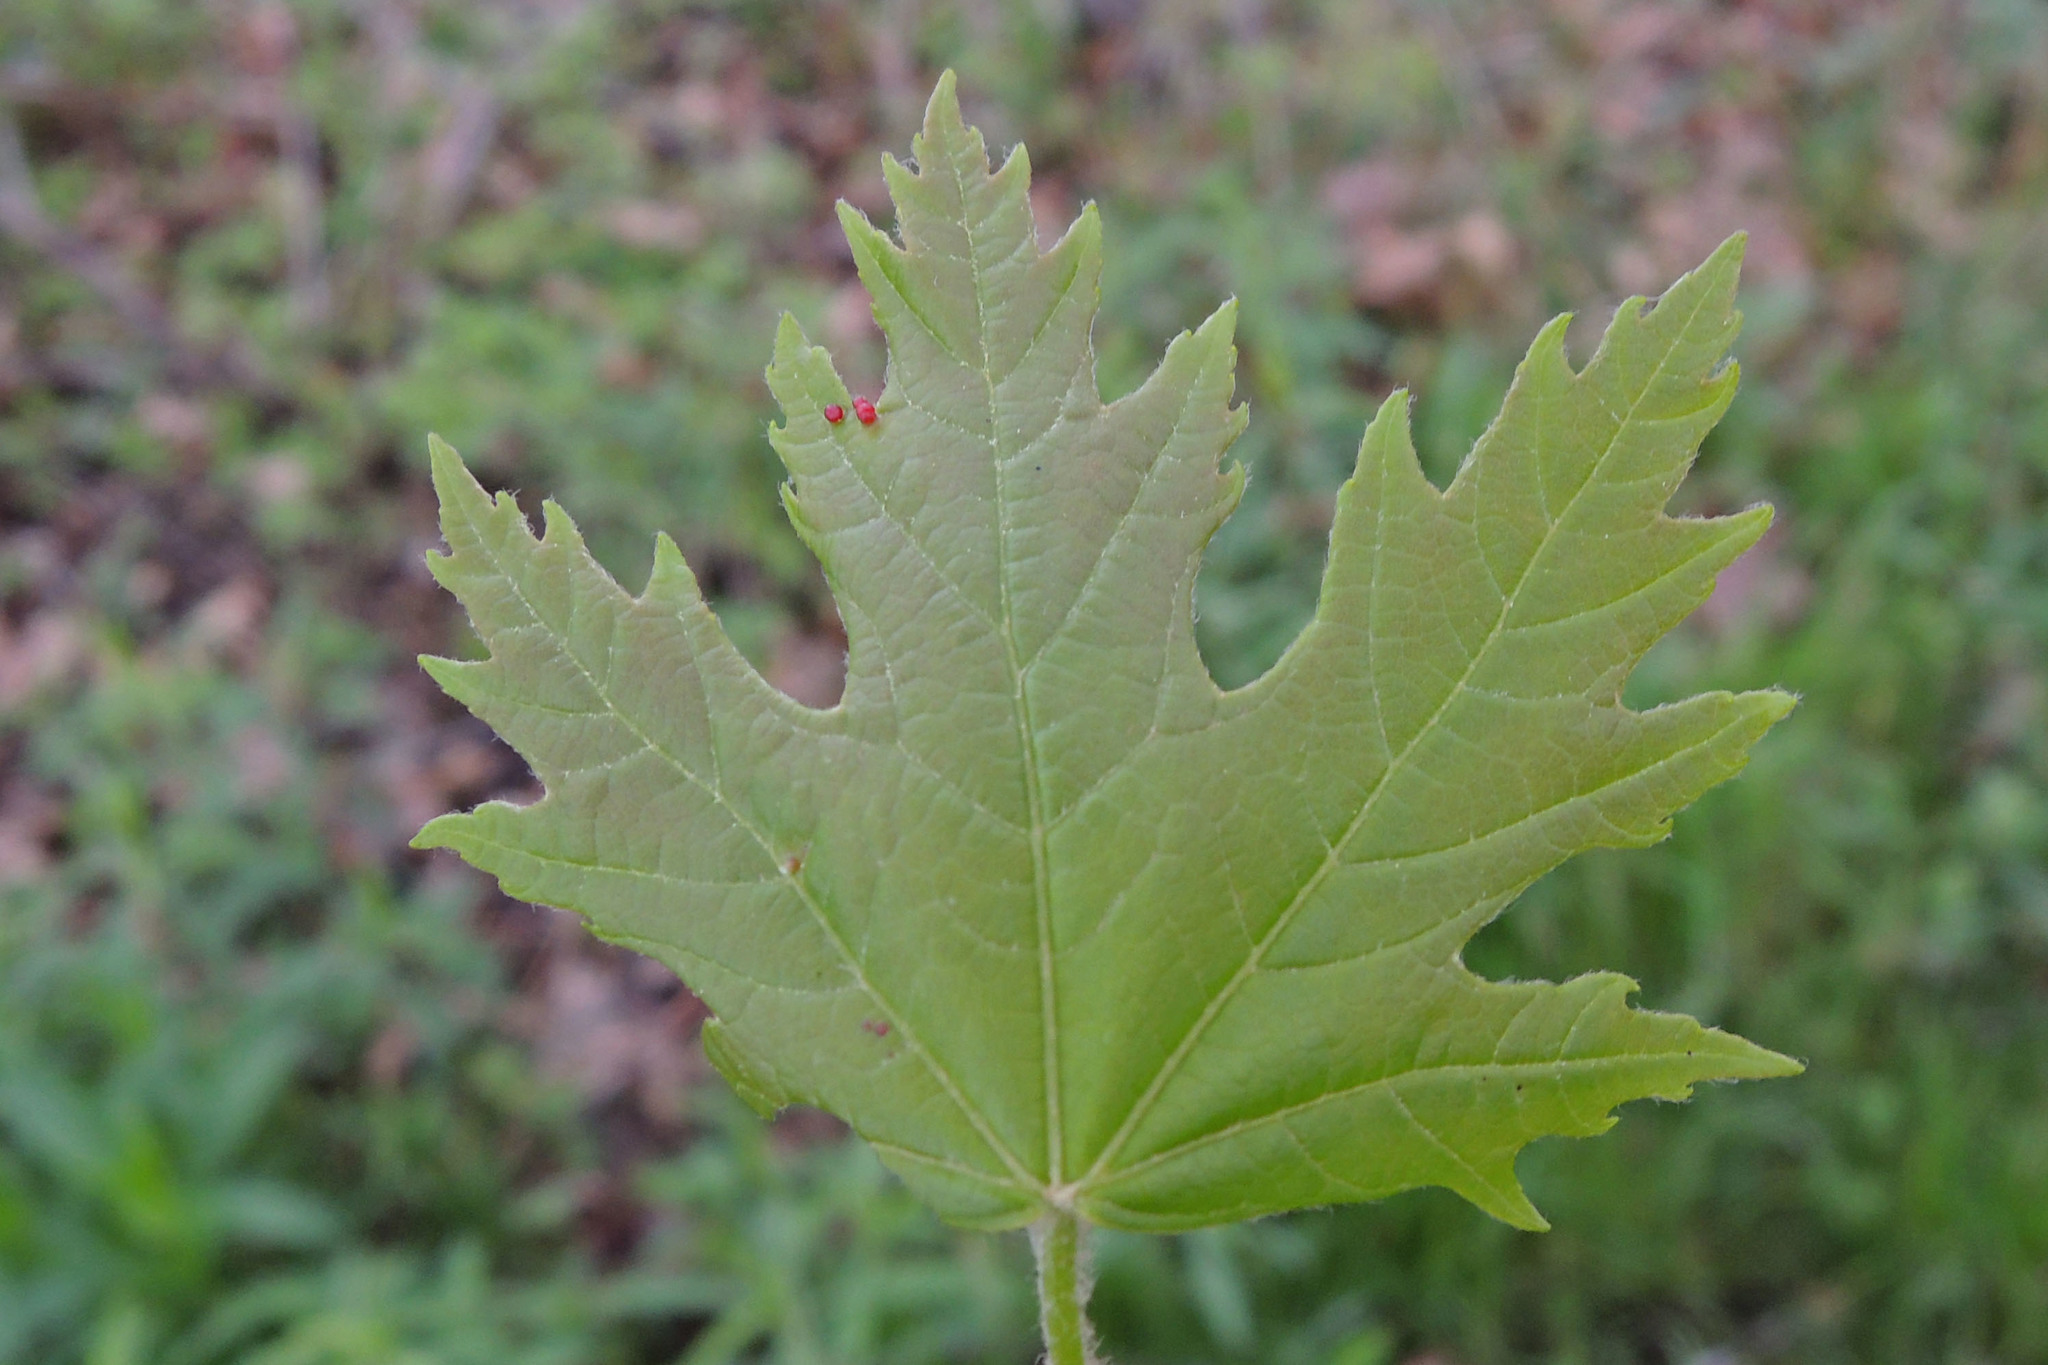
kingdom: Plantae
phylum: Tracheophyta
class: Magnoliopsida
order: Sapindales
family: Sapindaceae
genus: Acer
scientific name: Acer saccharinum
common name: Silver maple
